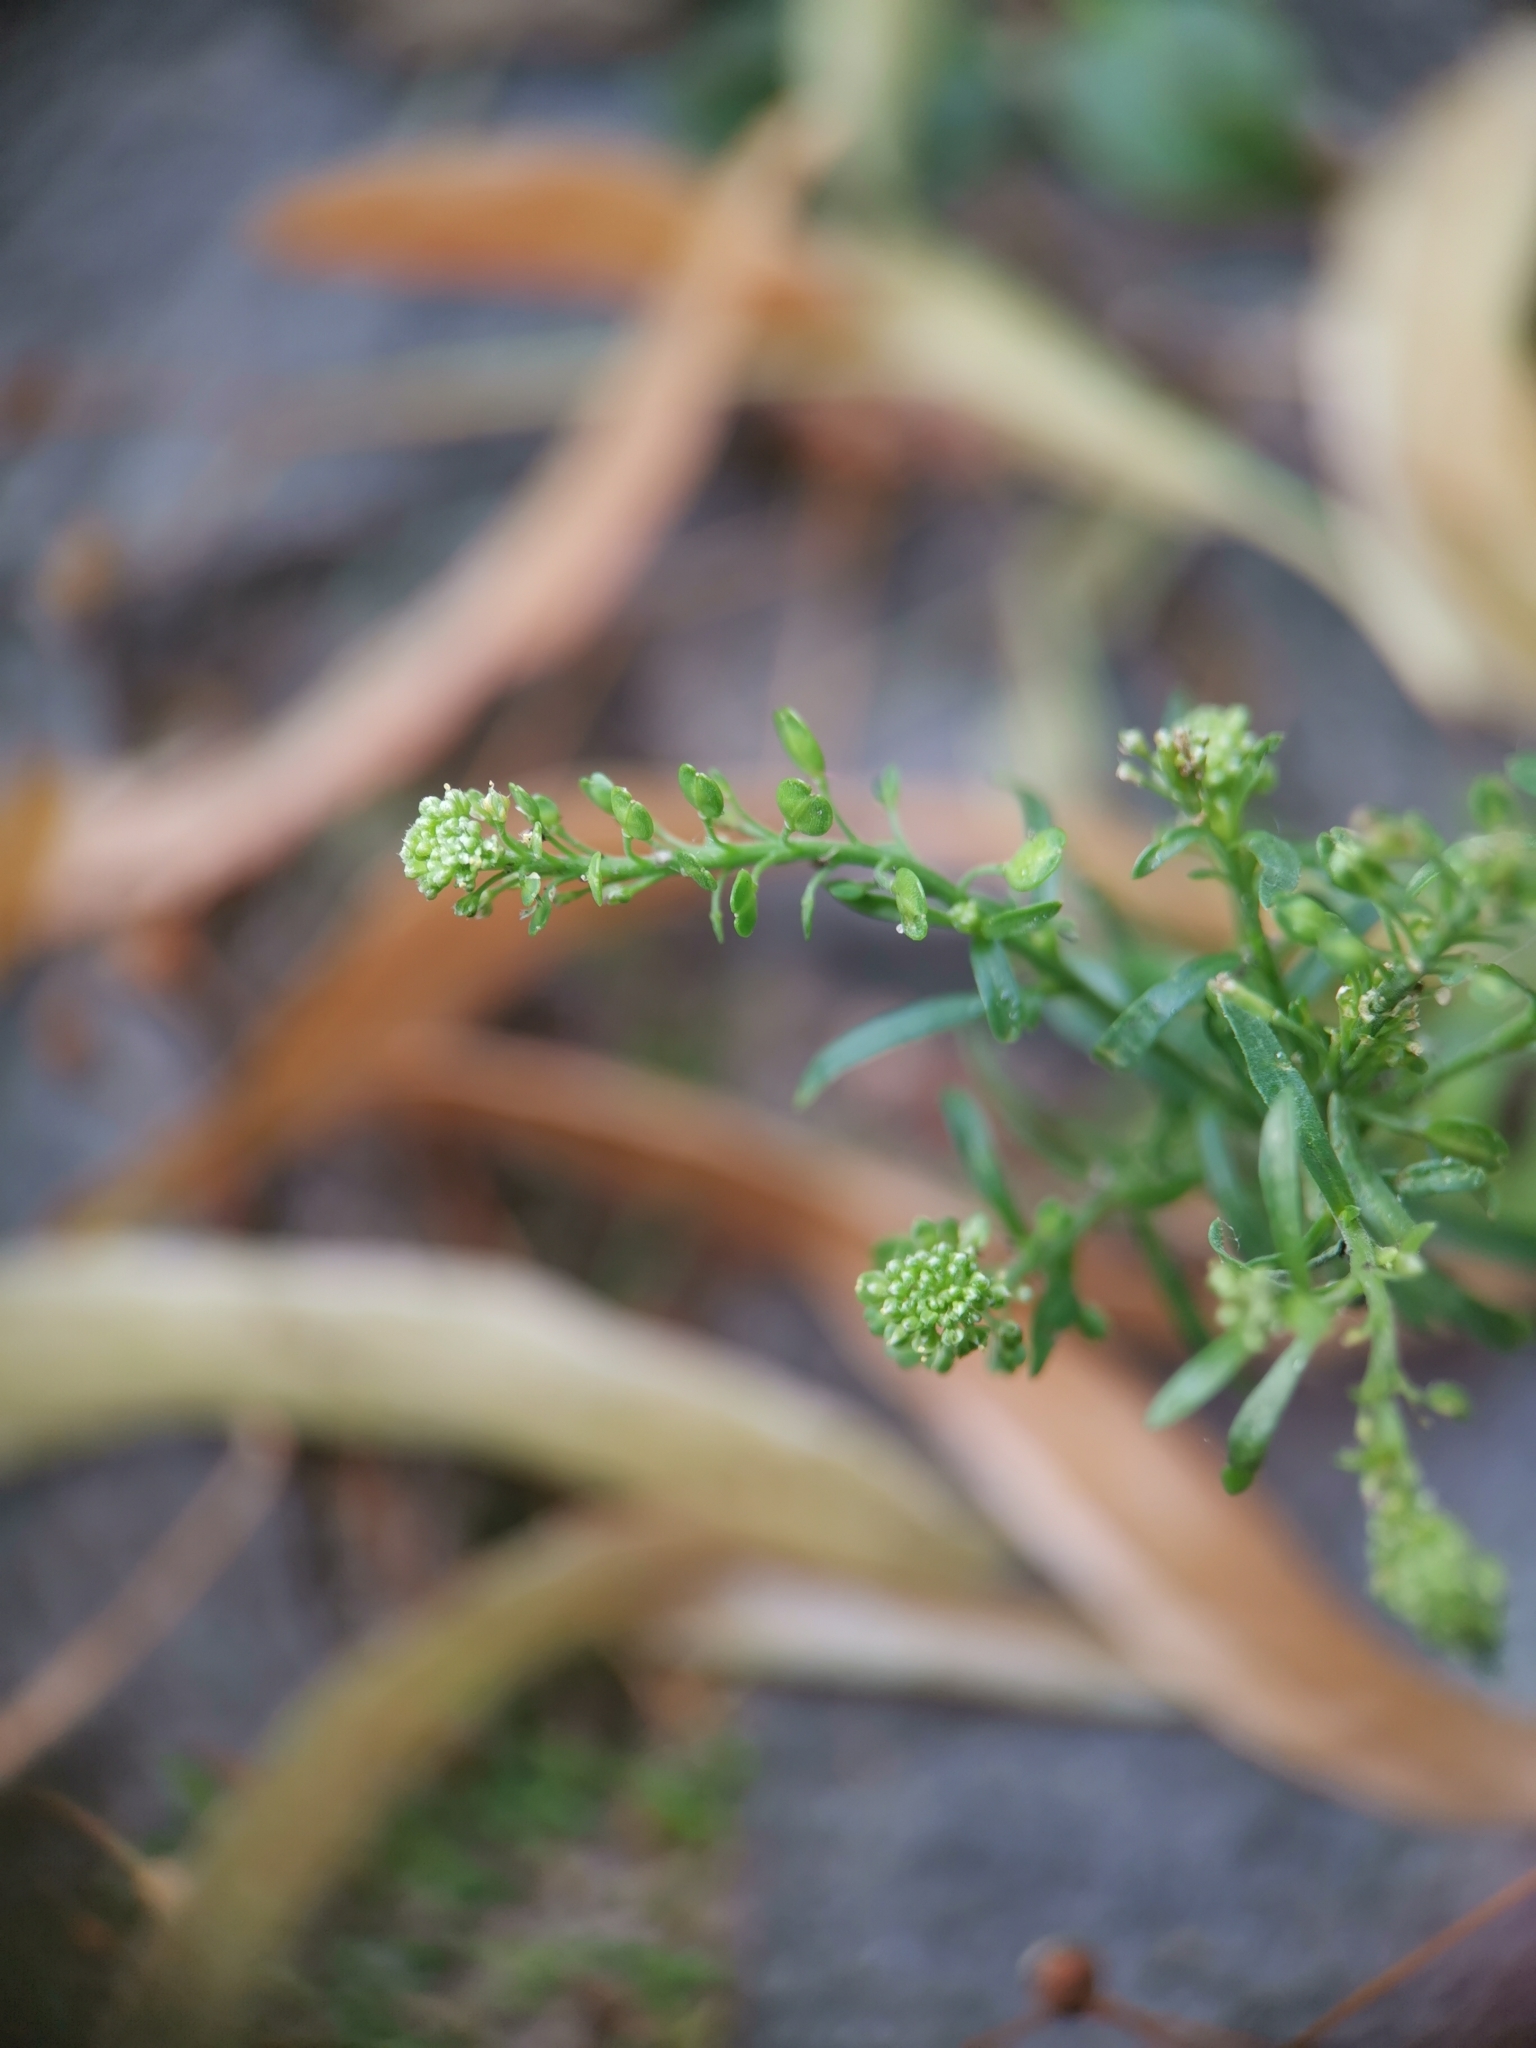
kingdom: Plantae
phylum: Tracheophyta
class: Magnoliopsida
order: Brassicales
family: Brassicaceae
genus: Lepidium
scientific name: Lepidium ruderale
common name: Narrow-leaved pepperwort
